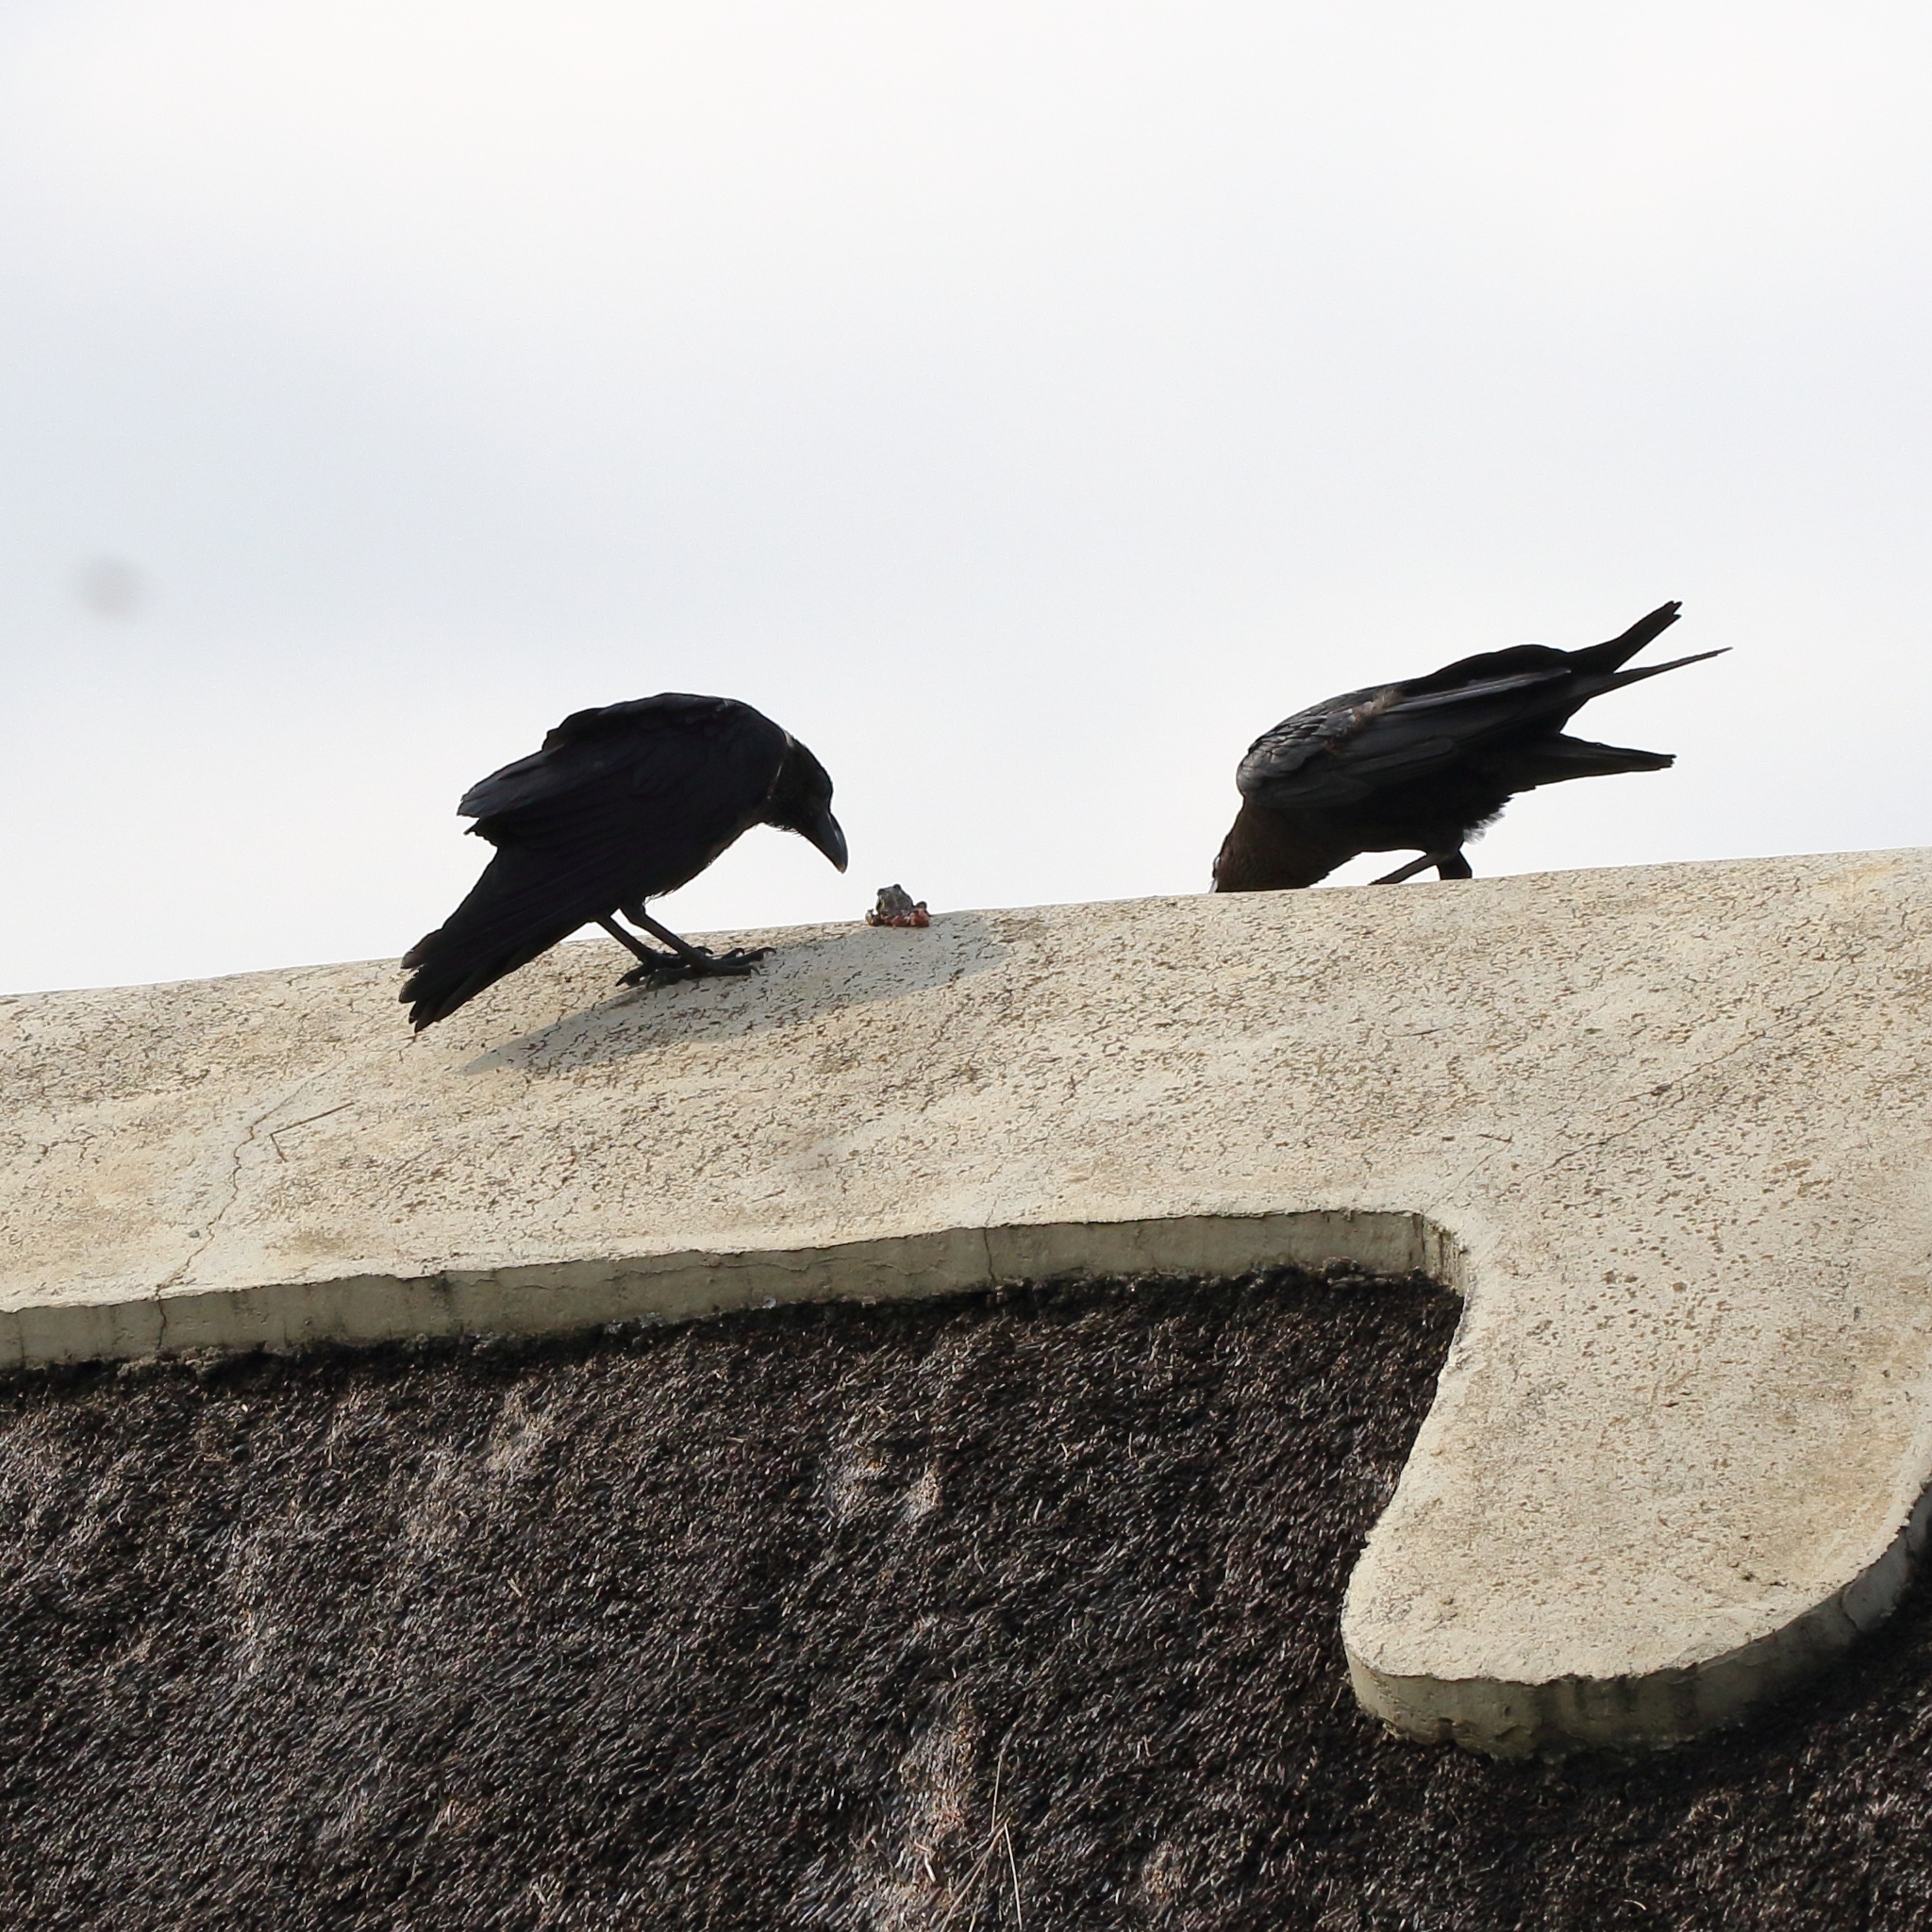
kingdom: Animalia
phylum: Chordata
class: Aves
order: Passeriformes
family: Corvidae
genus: Corvus
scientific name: Corvus albicollis
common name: White-necked raven
